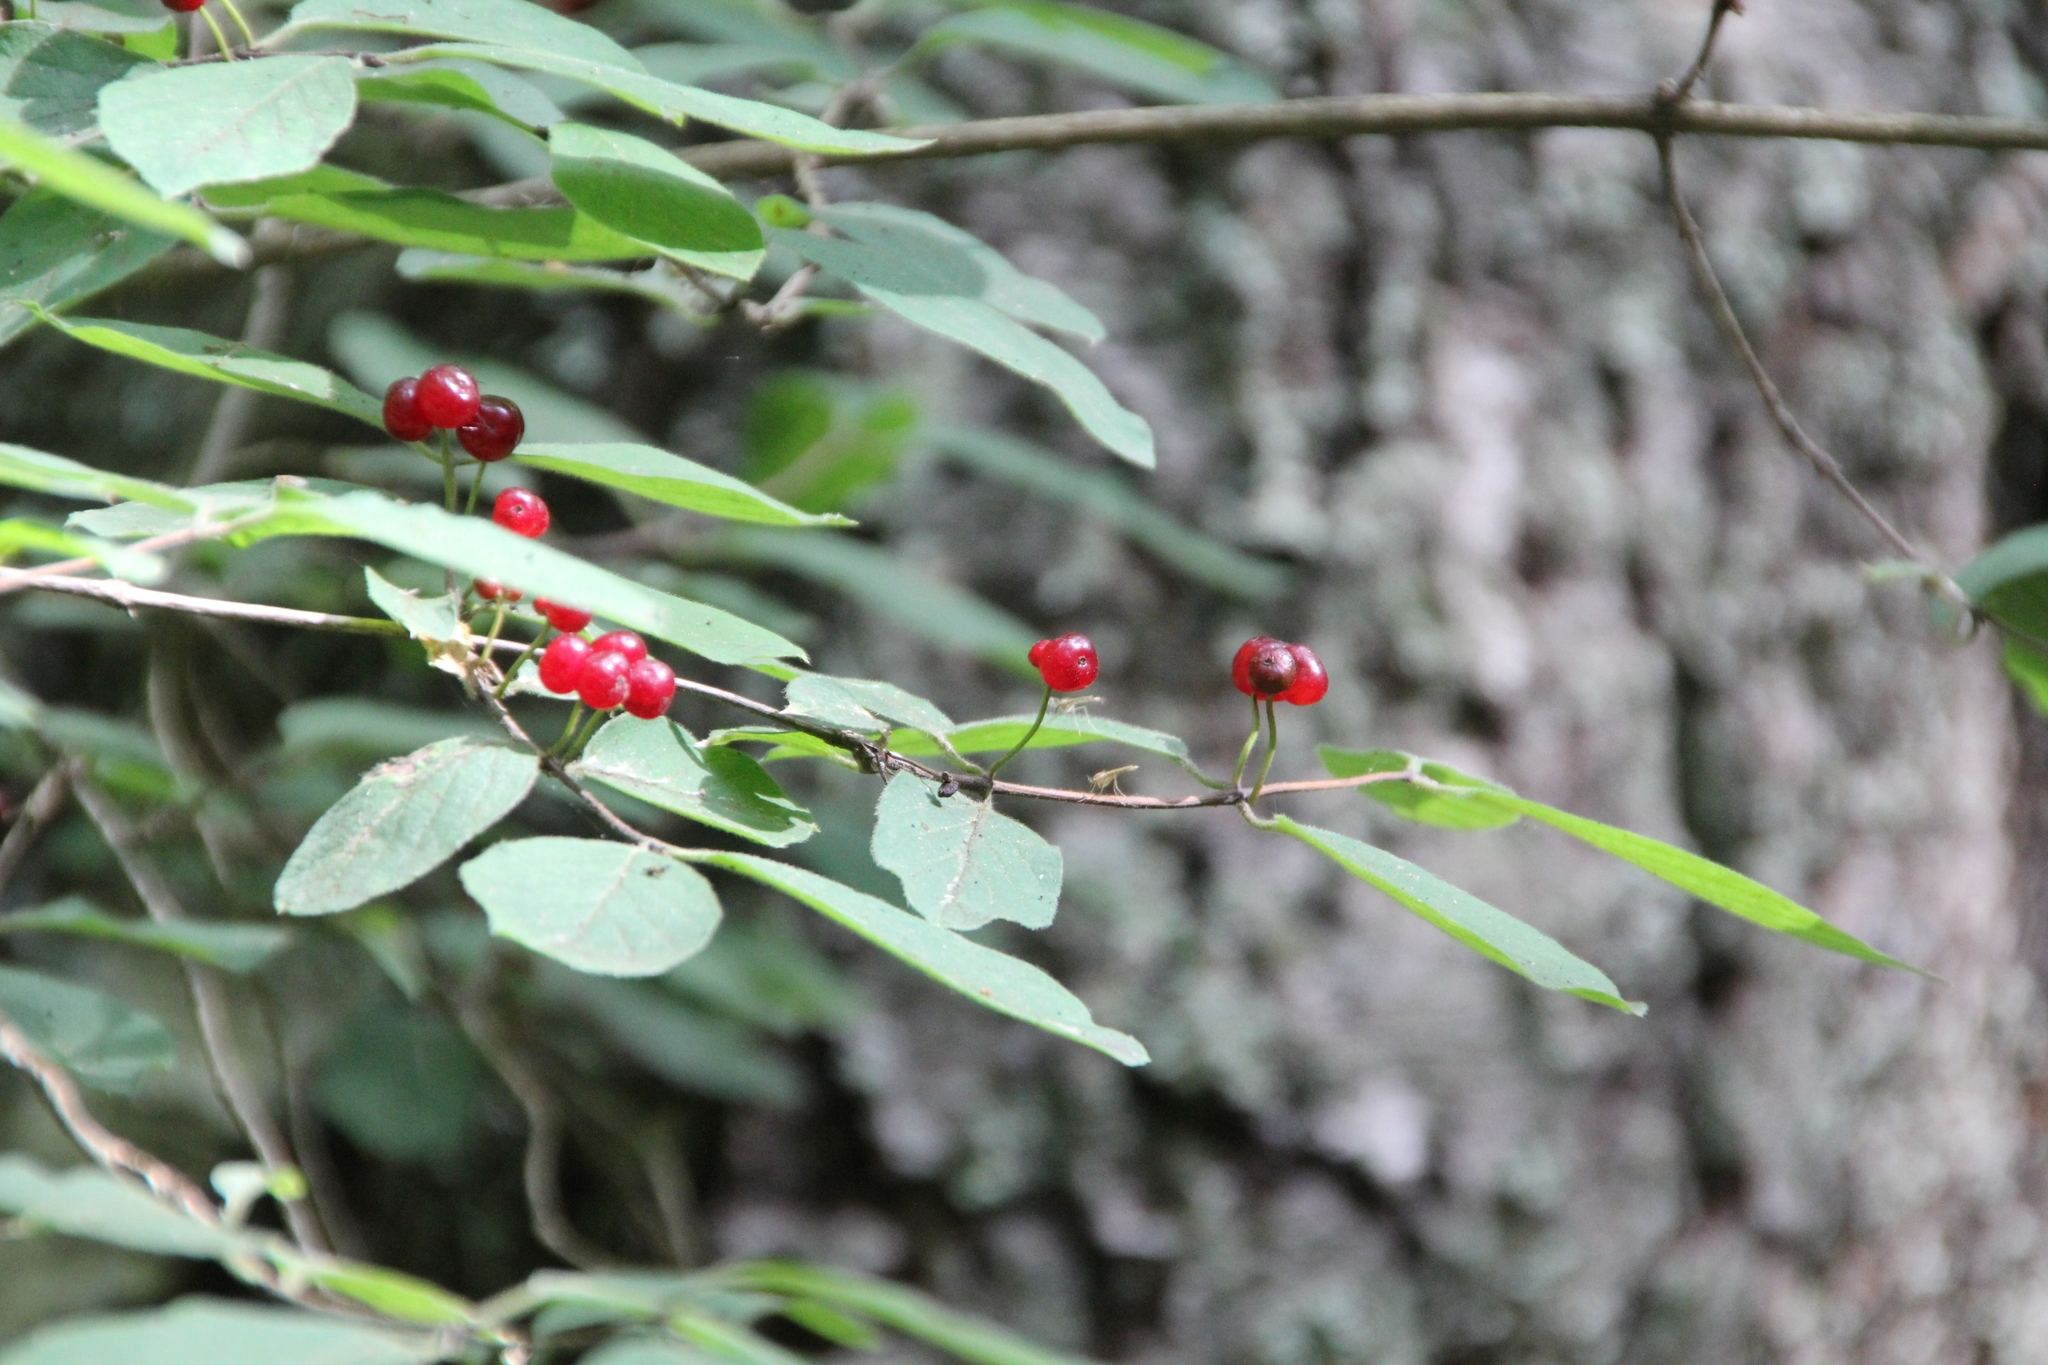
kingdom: Plantae
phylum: Tracheophyta
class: Magnoliopsida
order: Dipsacales
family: Caprifoliaceae
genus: Lonicera
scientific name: Lonicera xylosteum
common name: Fly honeysuckle
